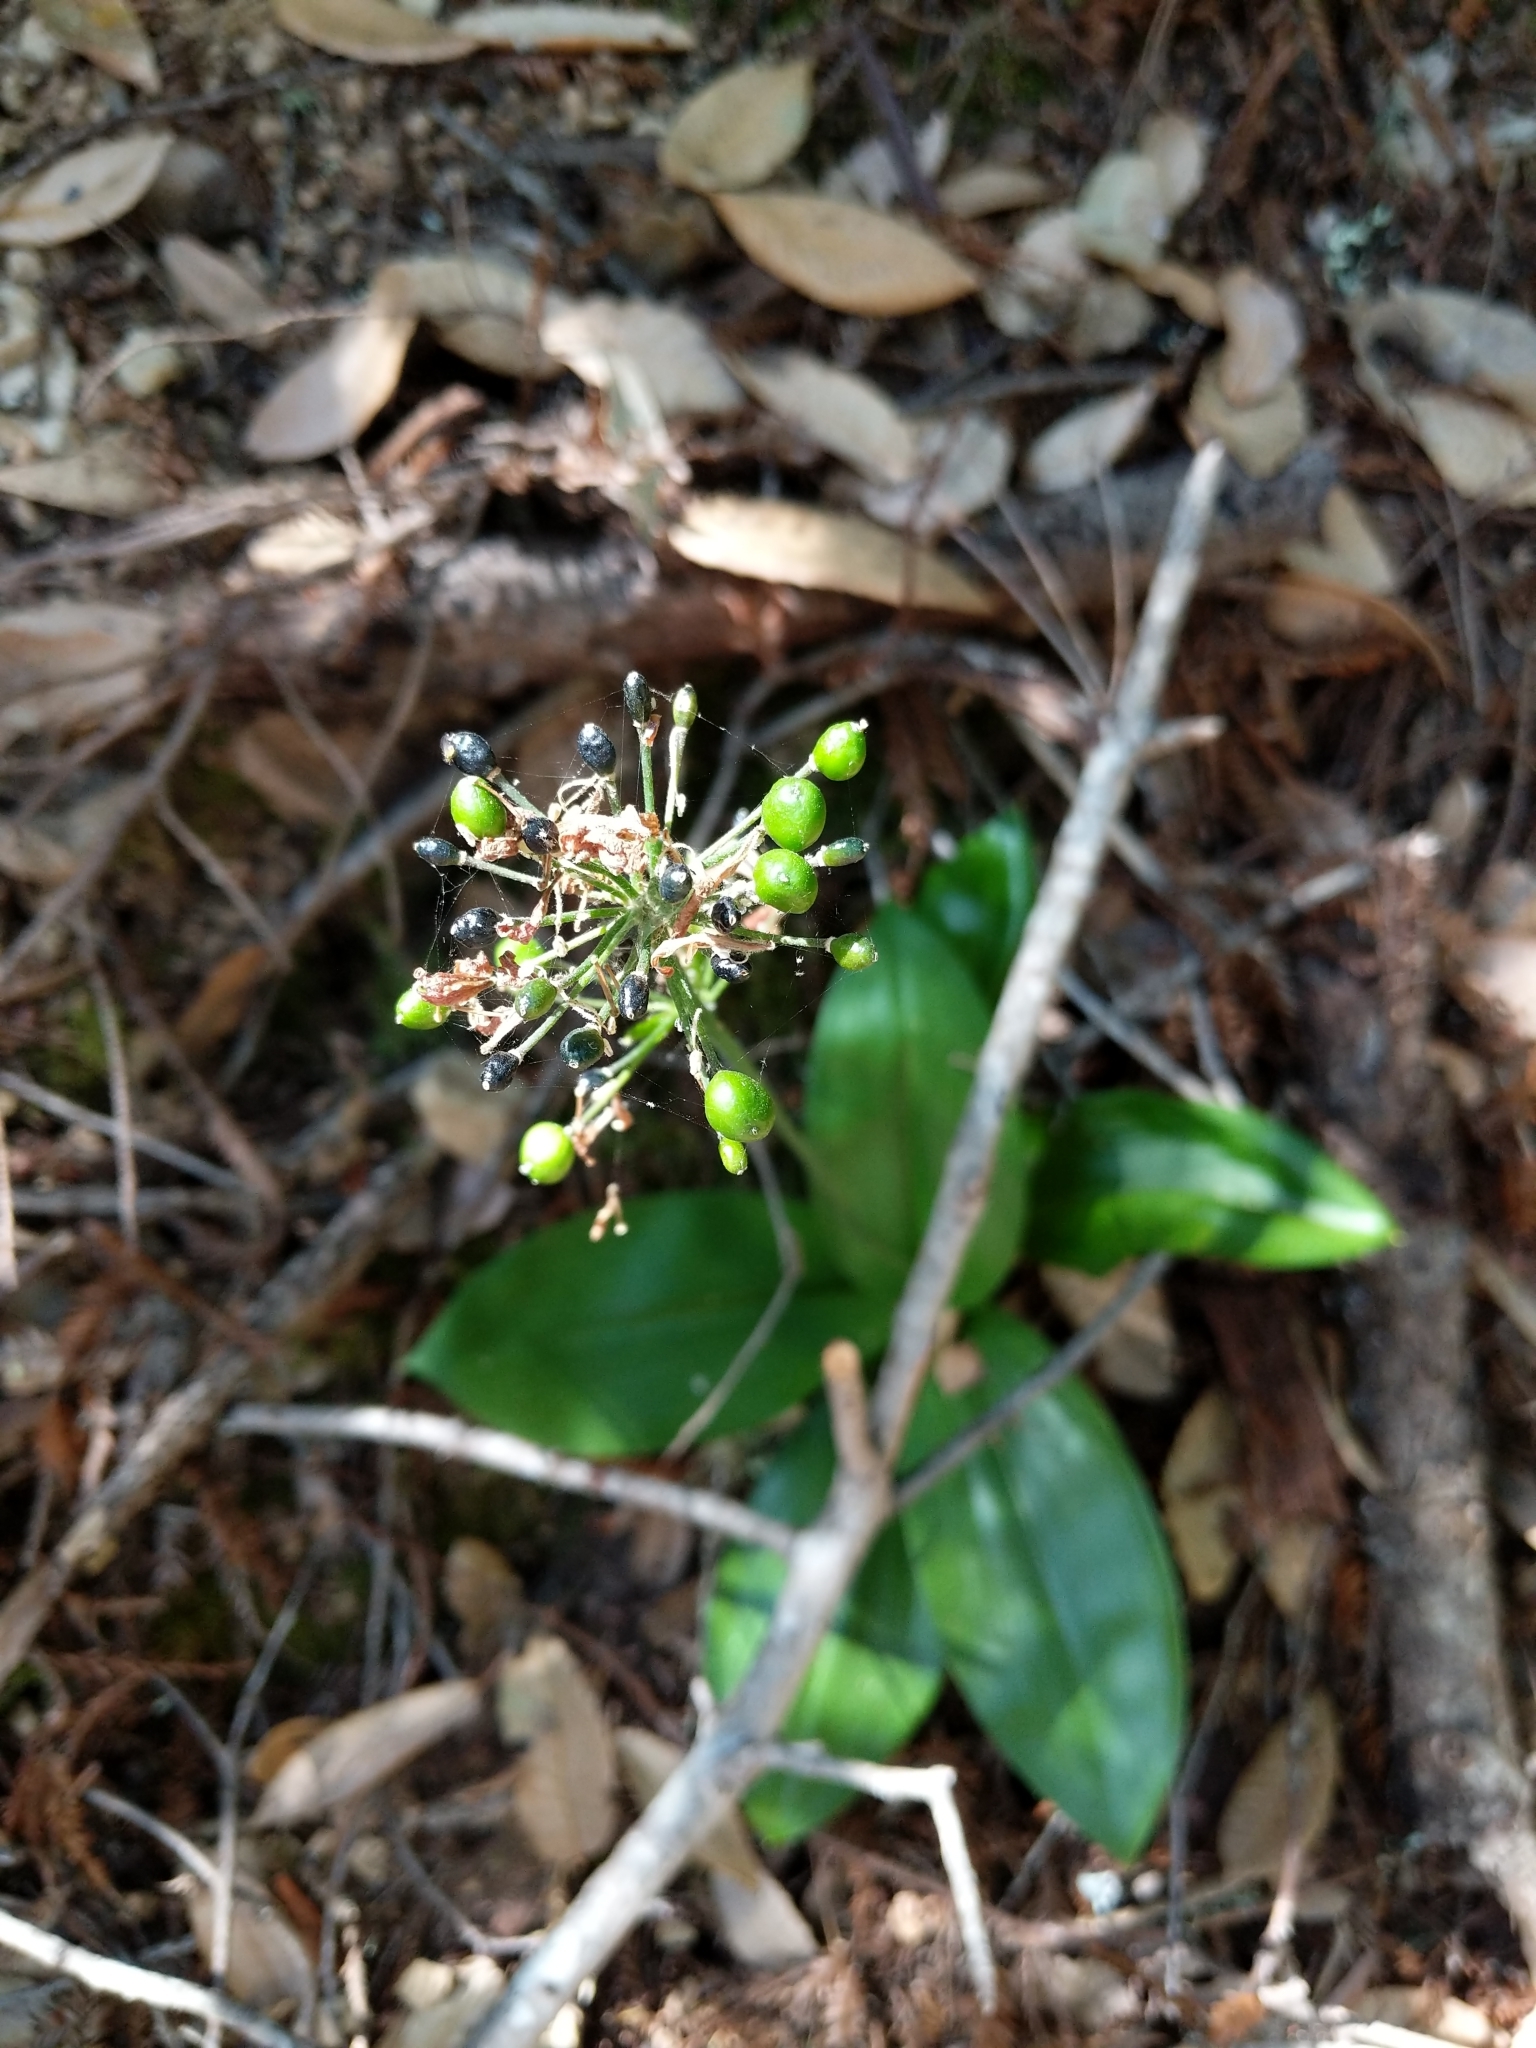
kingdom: Plantae
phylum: Tracheophyta
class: Liliopsida
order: Liliales
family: Liliaceae
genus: Clintonia
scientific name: Clintonia andrewsiana
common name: Red clintonia
